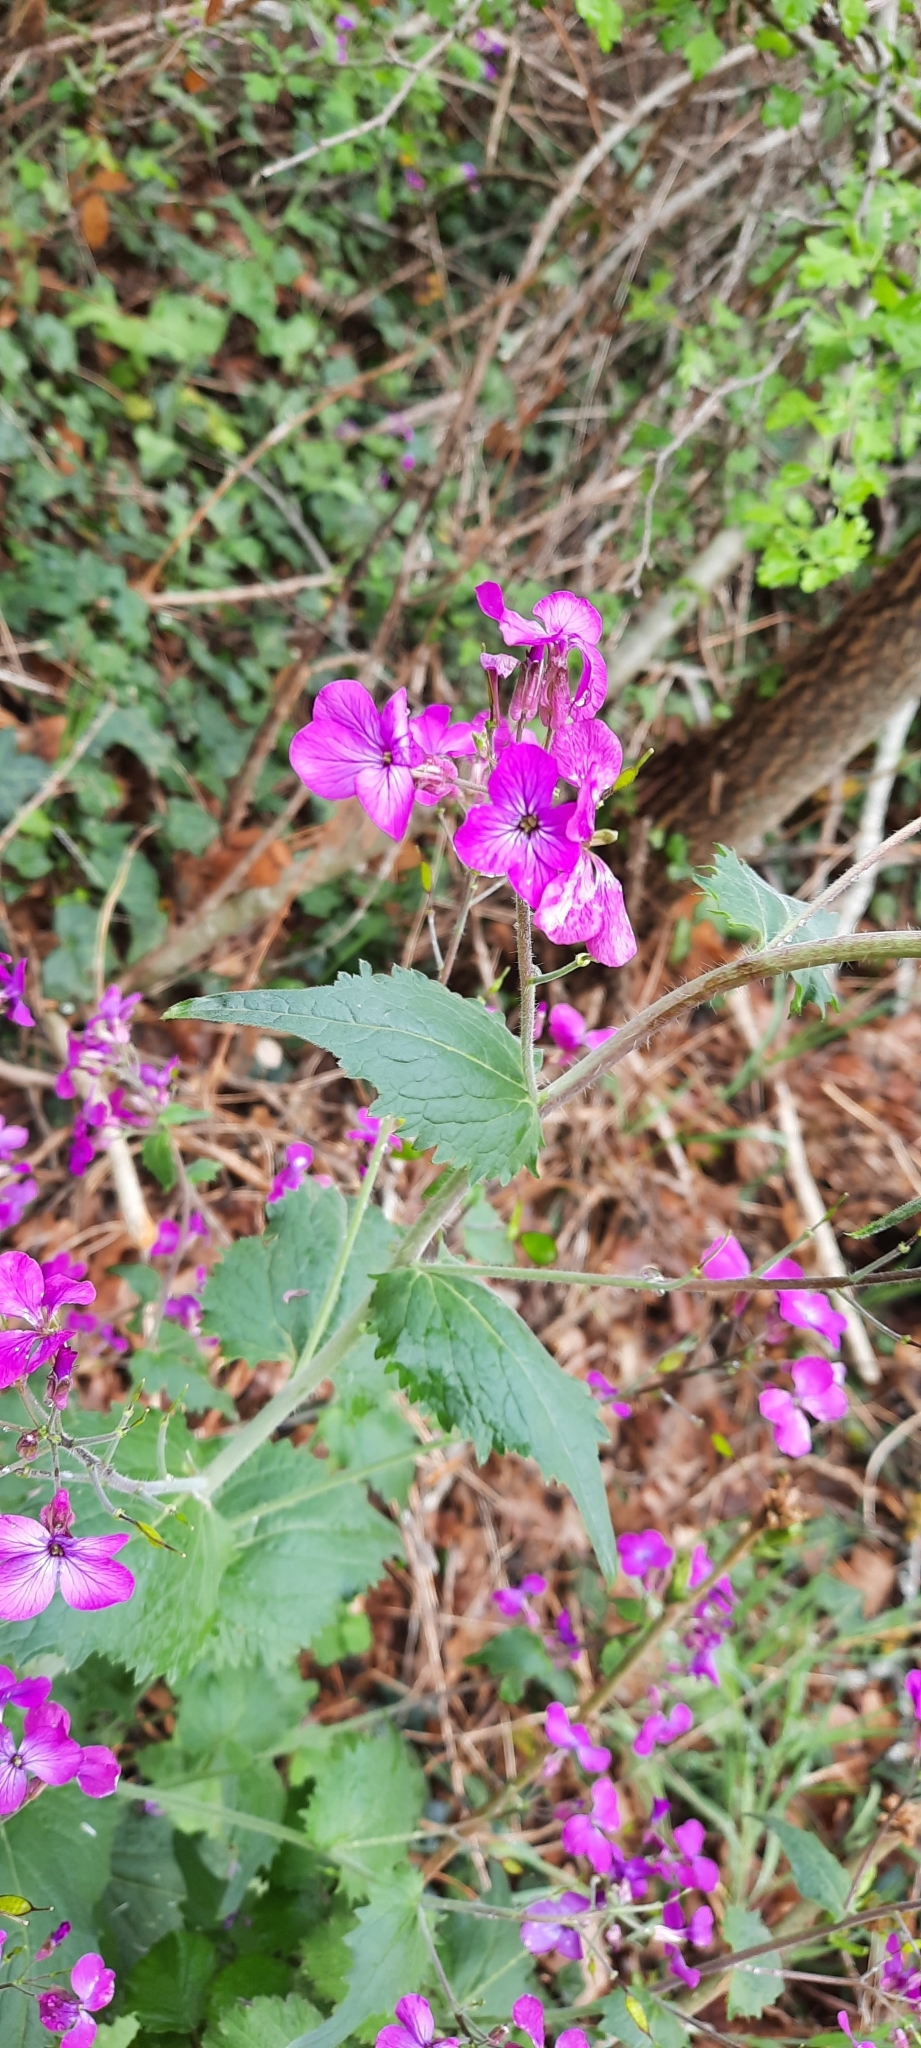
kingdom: Plantae
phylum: Tracheophyta
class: Magnoliopsida
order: Brassicales
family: Brassicaceae
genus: Lunaria
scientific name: Lunaria annua
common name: Honesty
